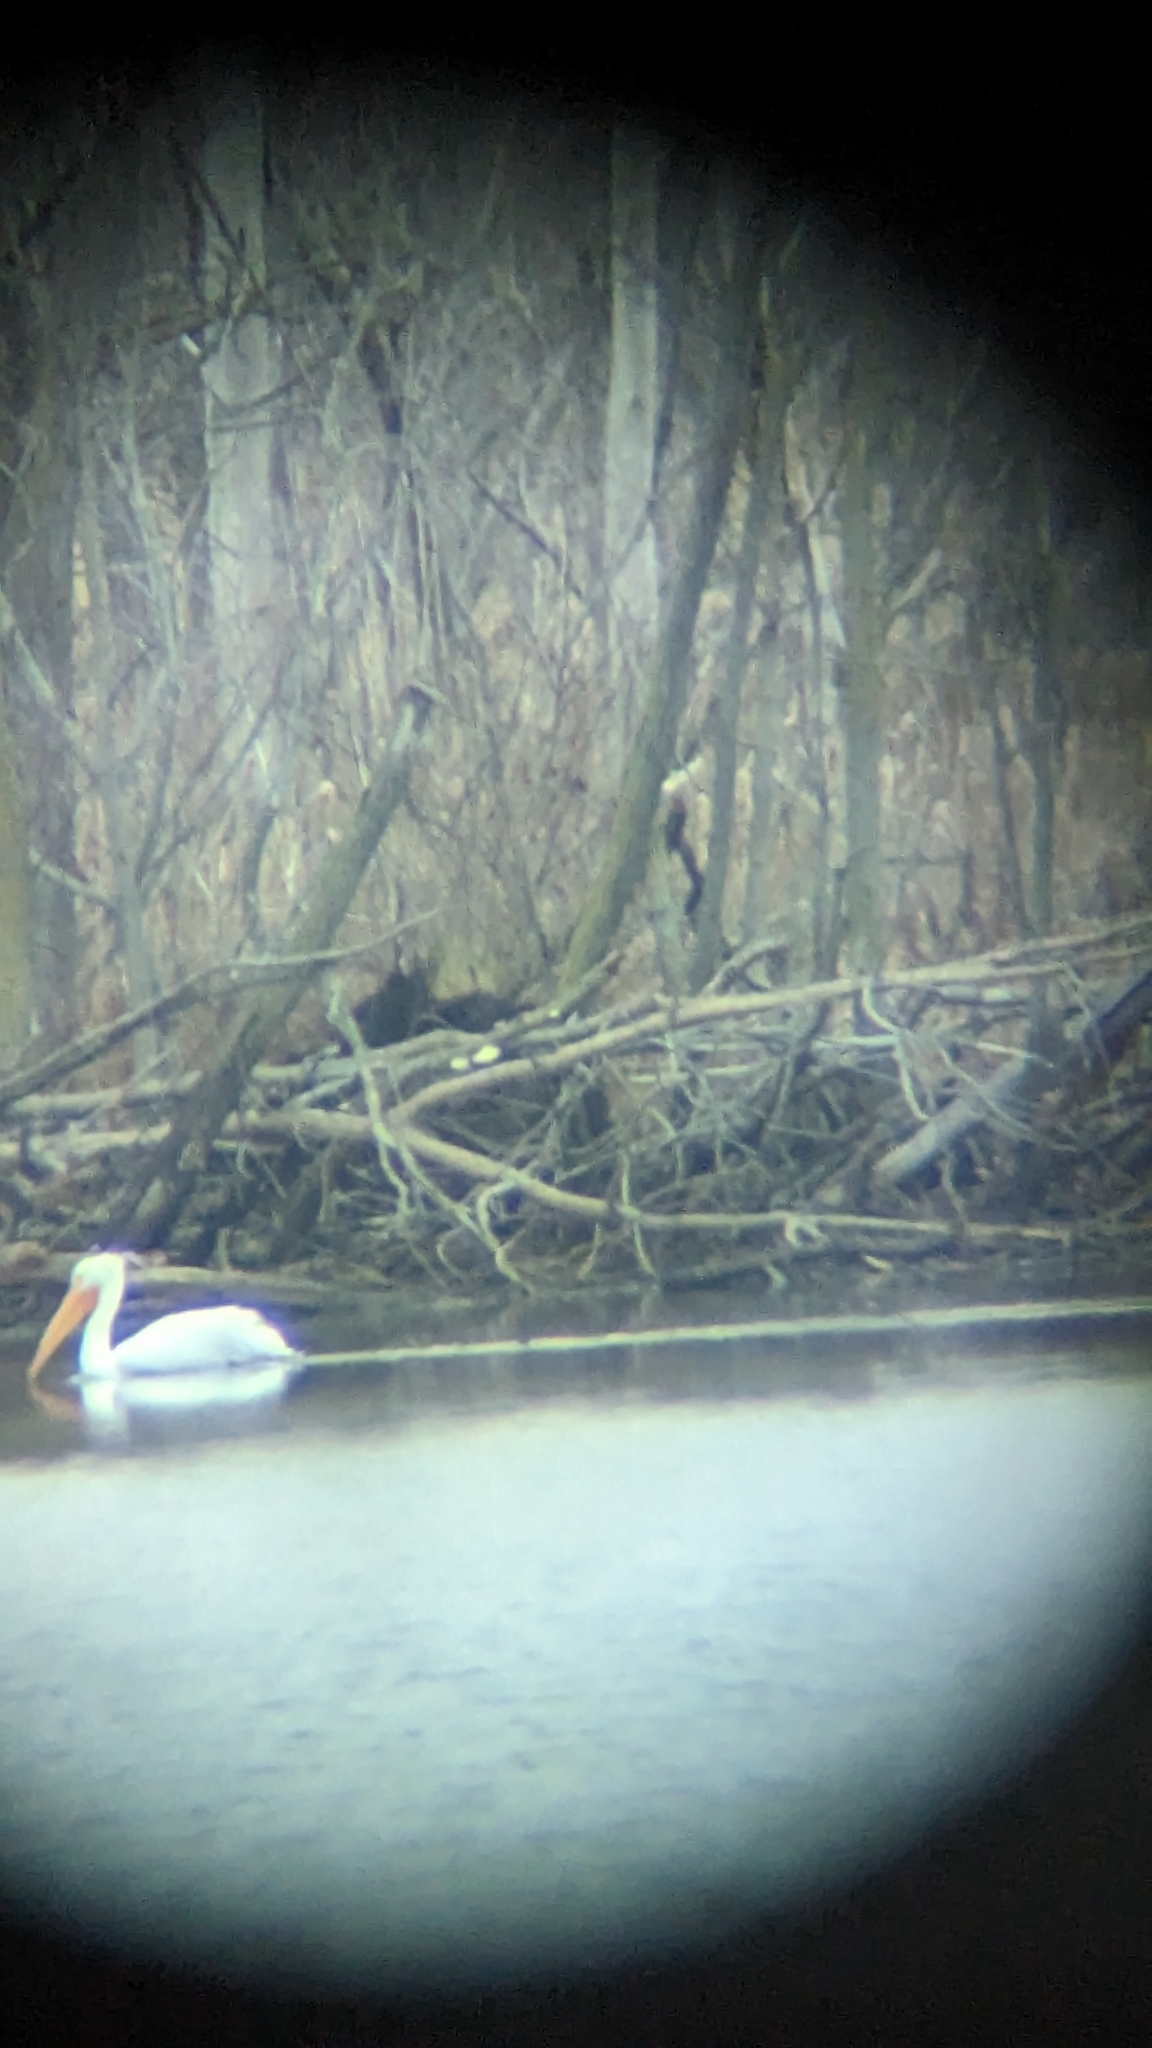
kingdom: Animalia
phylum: Chordata
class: Aves
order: Pelecaniformes
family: Pelecanidae
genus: Pelecanus
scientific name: Pelecanus erythrorhynchos
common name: American white pelican
